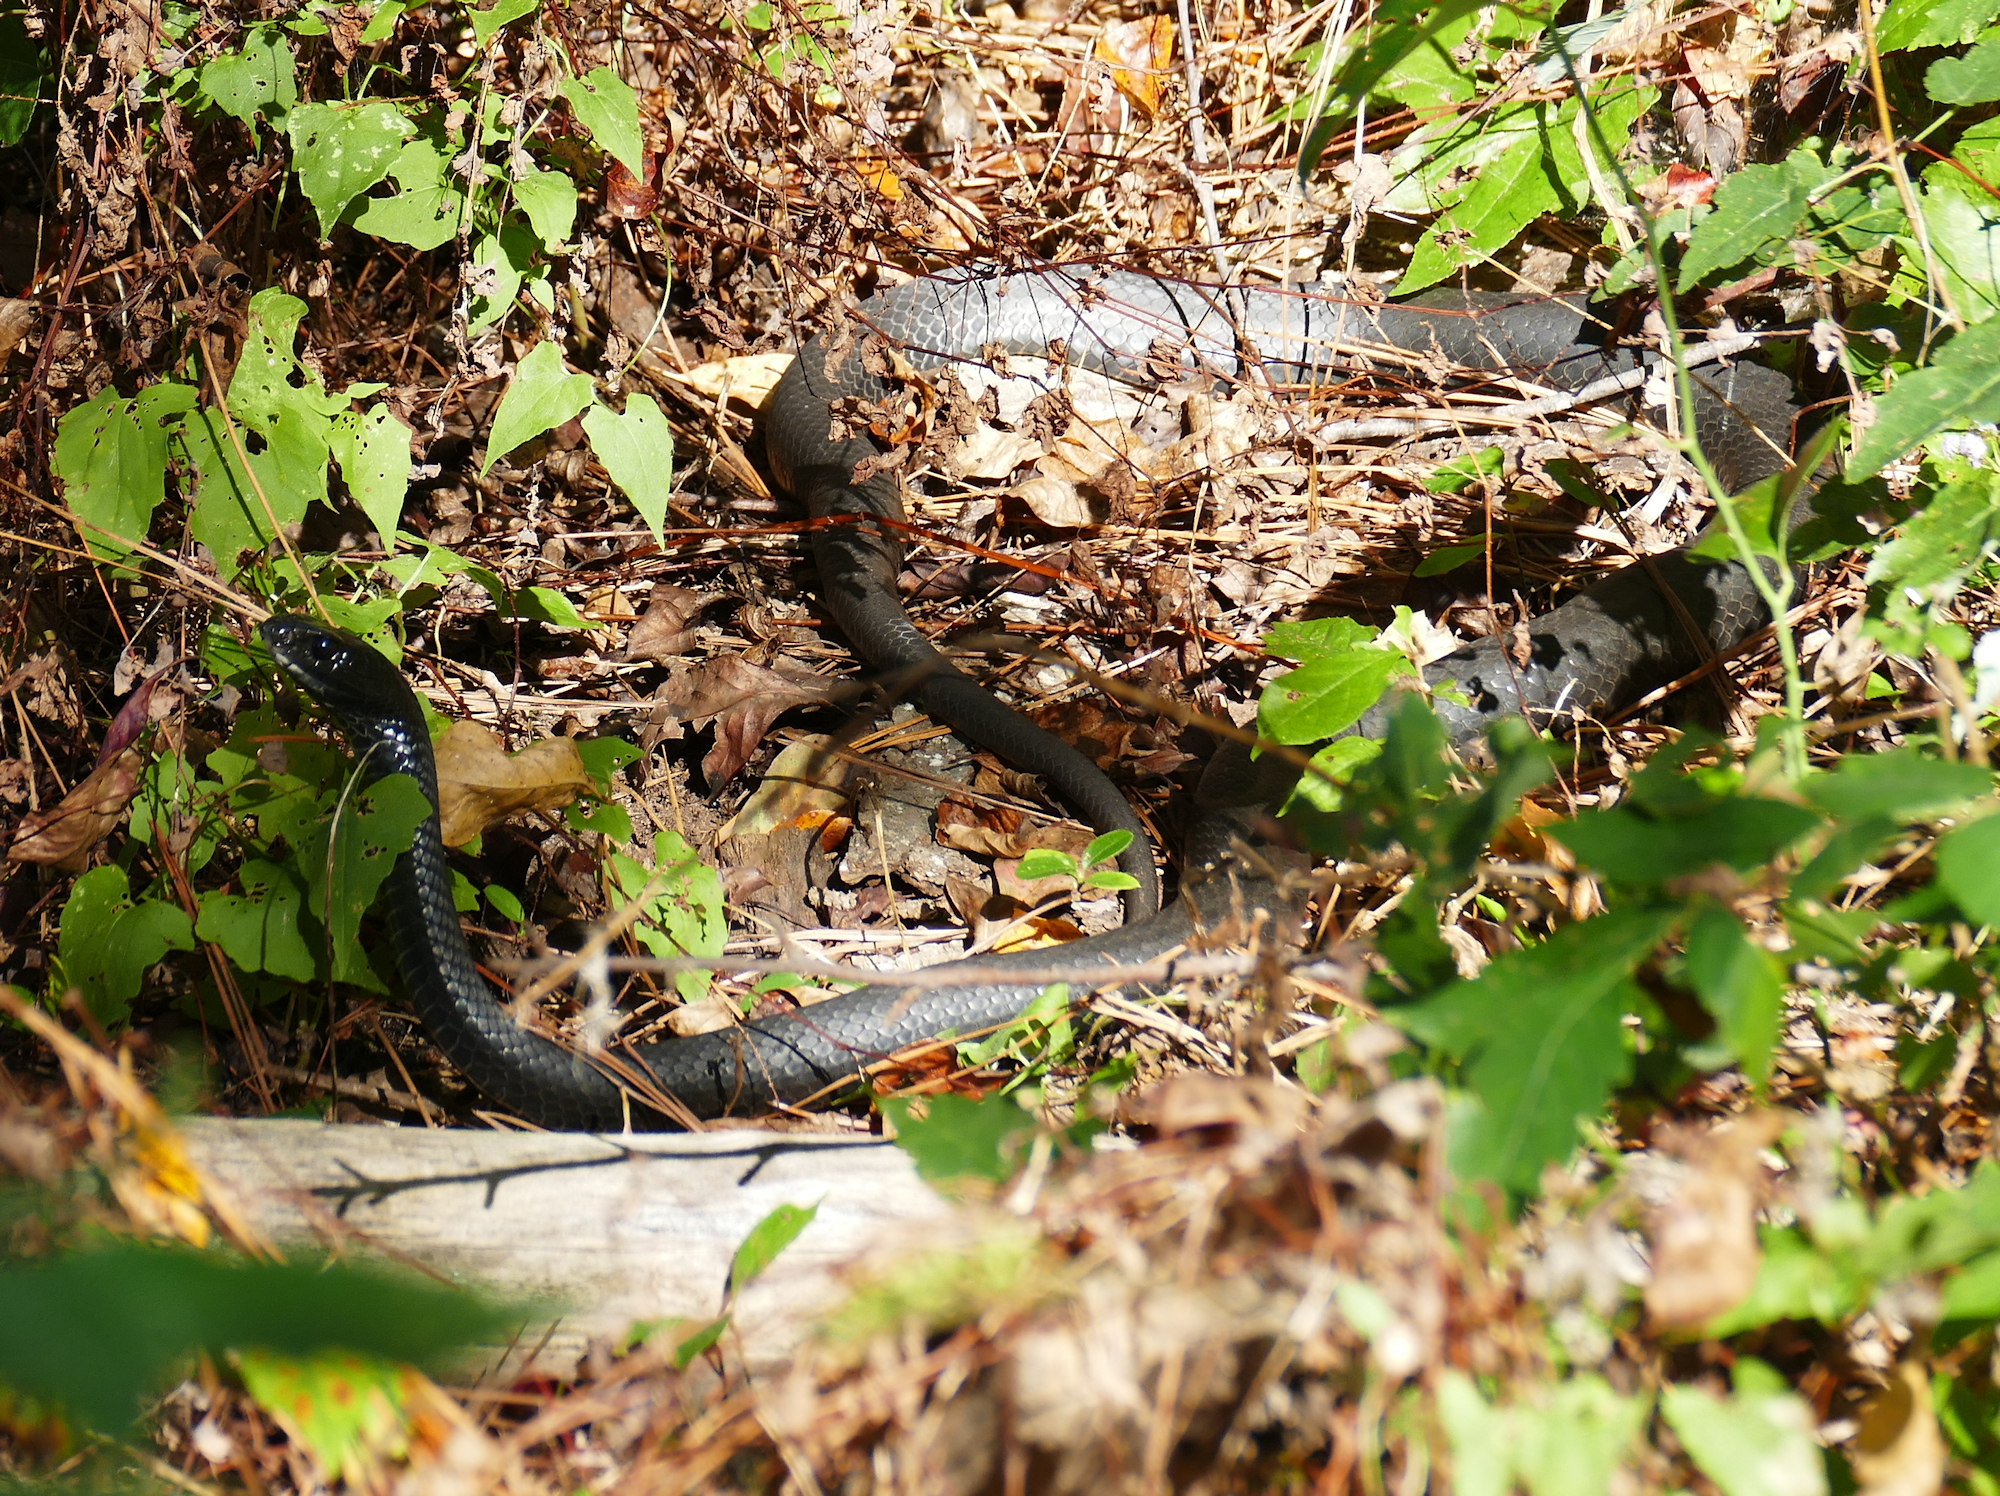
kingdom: Animalia
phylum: Chordata
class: Squamata
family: Colubridae
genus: Coluber
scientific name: Coluber constrictor
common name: Eastern racer
